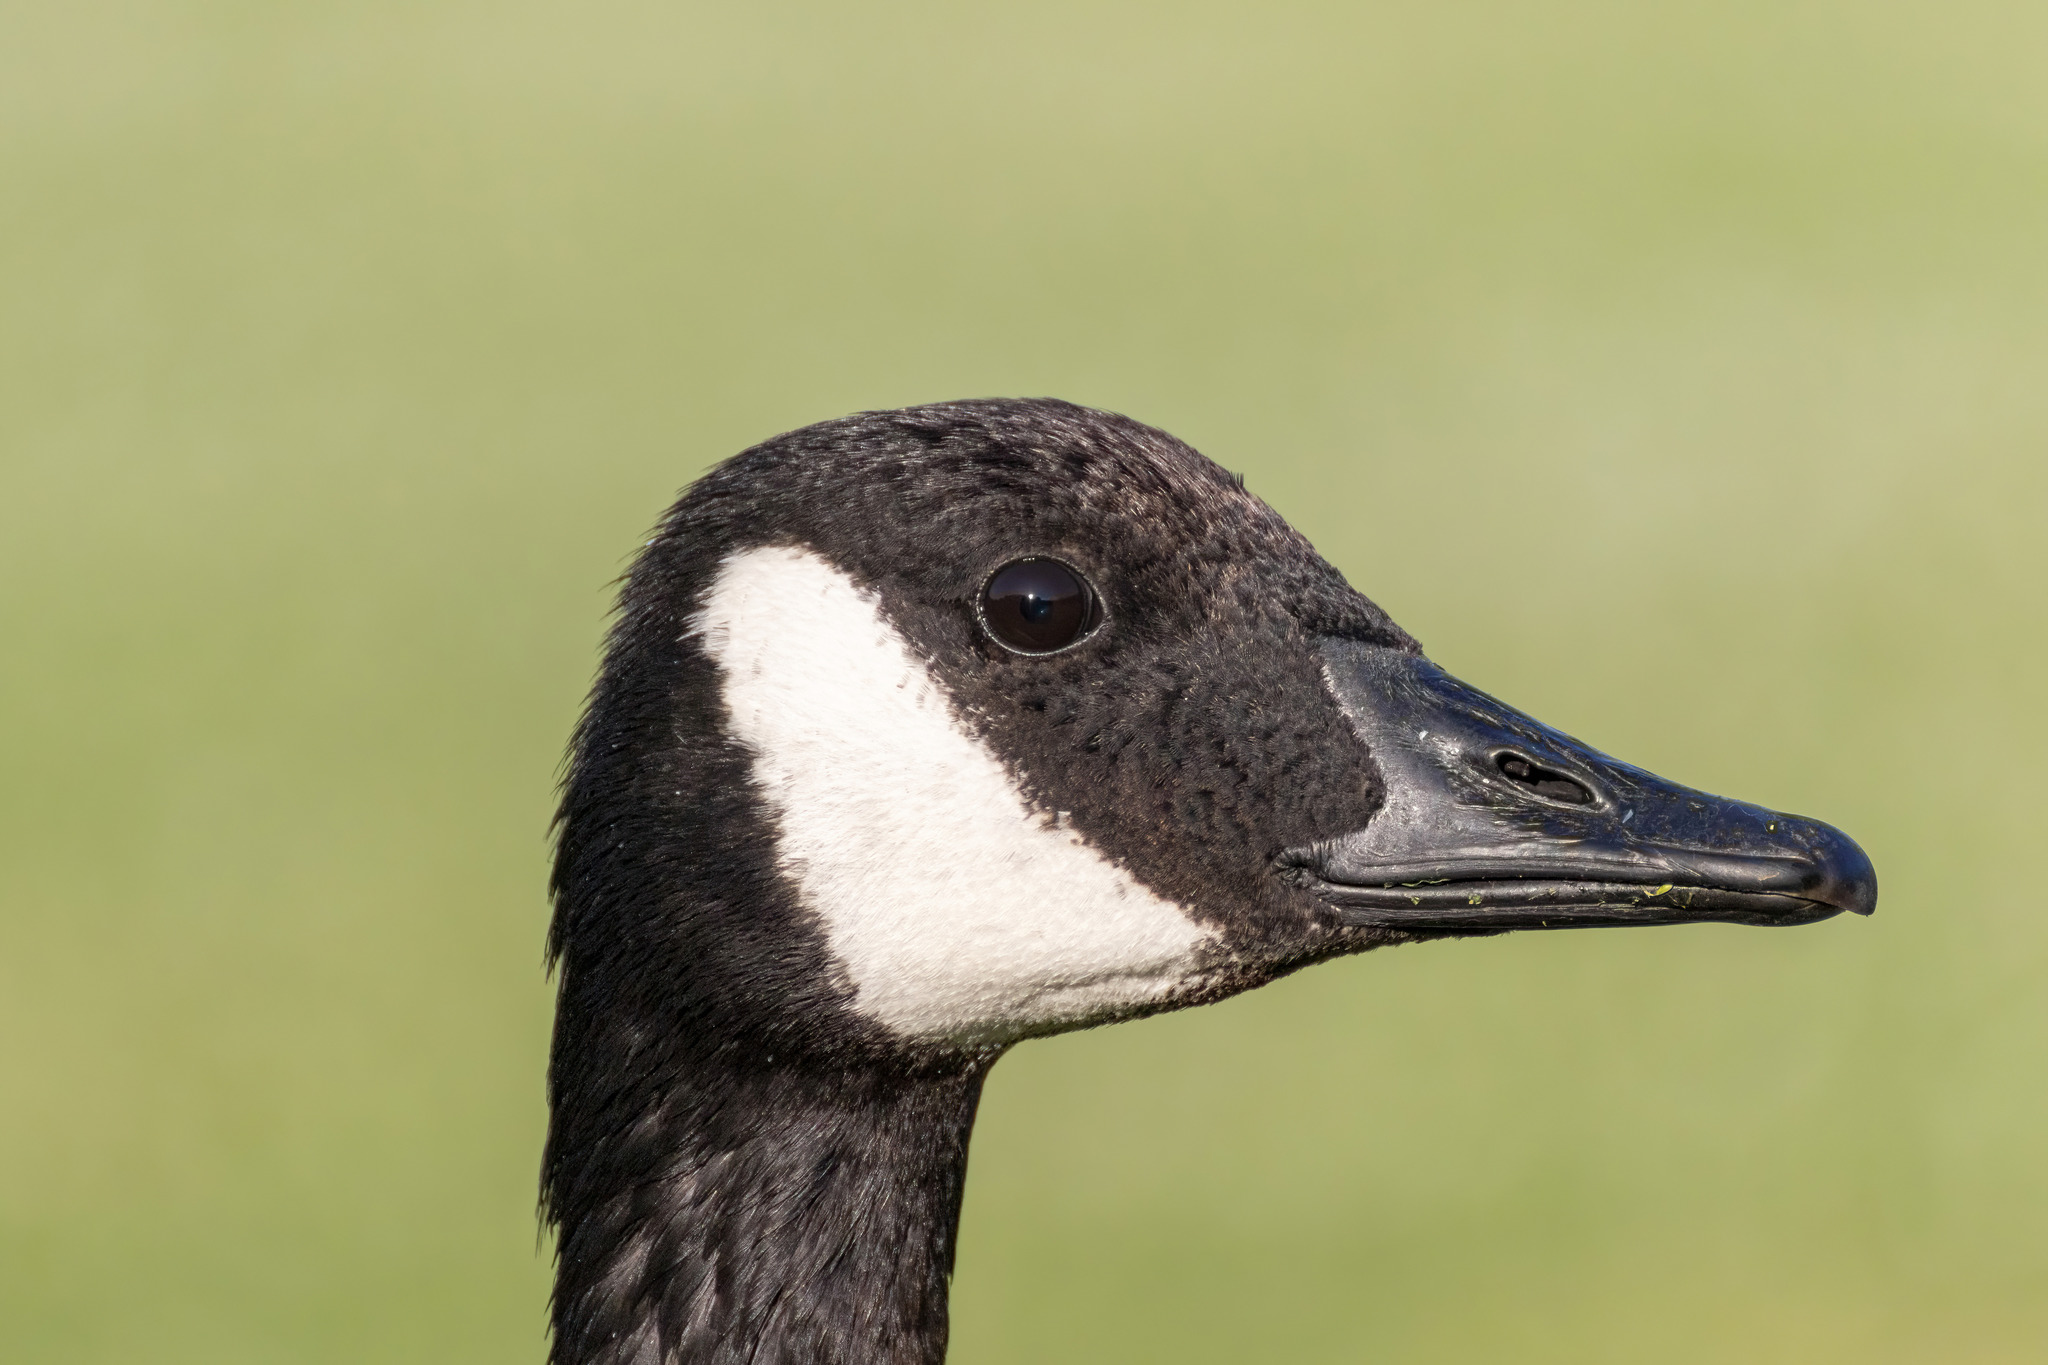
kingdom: Animalia
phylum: Chordata
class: Aves
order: Anseriformes
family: Anatidae
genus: Branta
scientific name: Branta canadensis
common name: Canada goose
